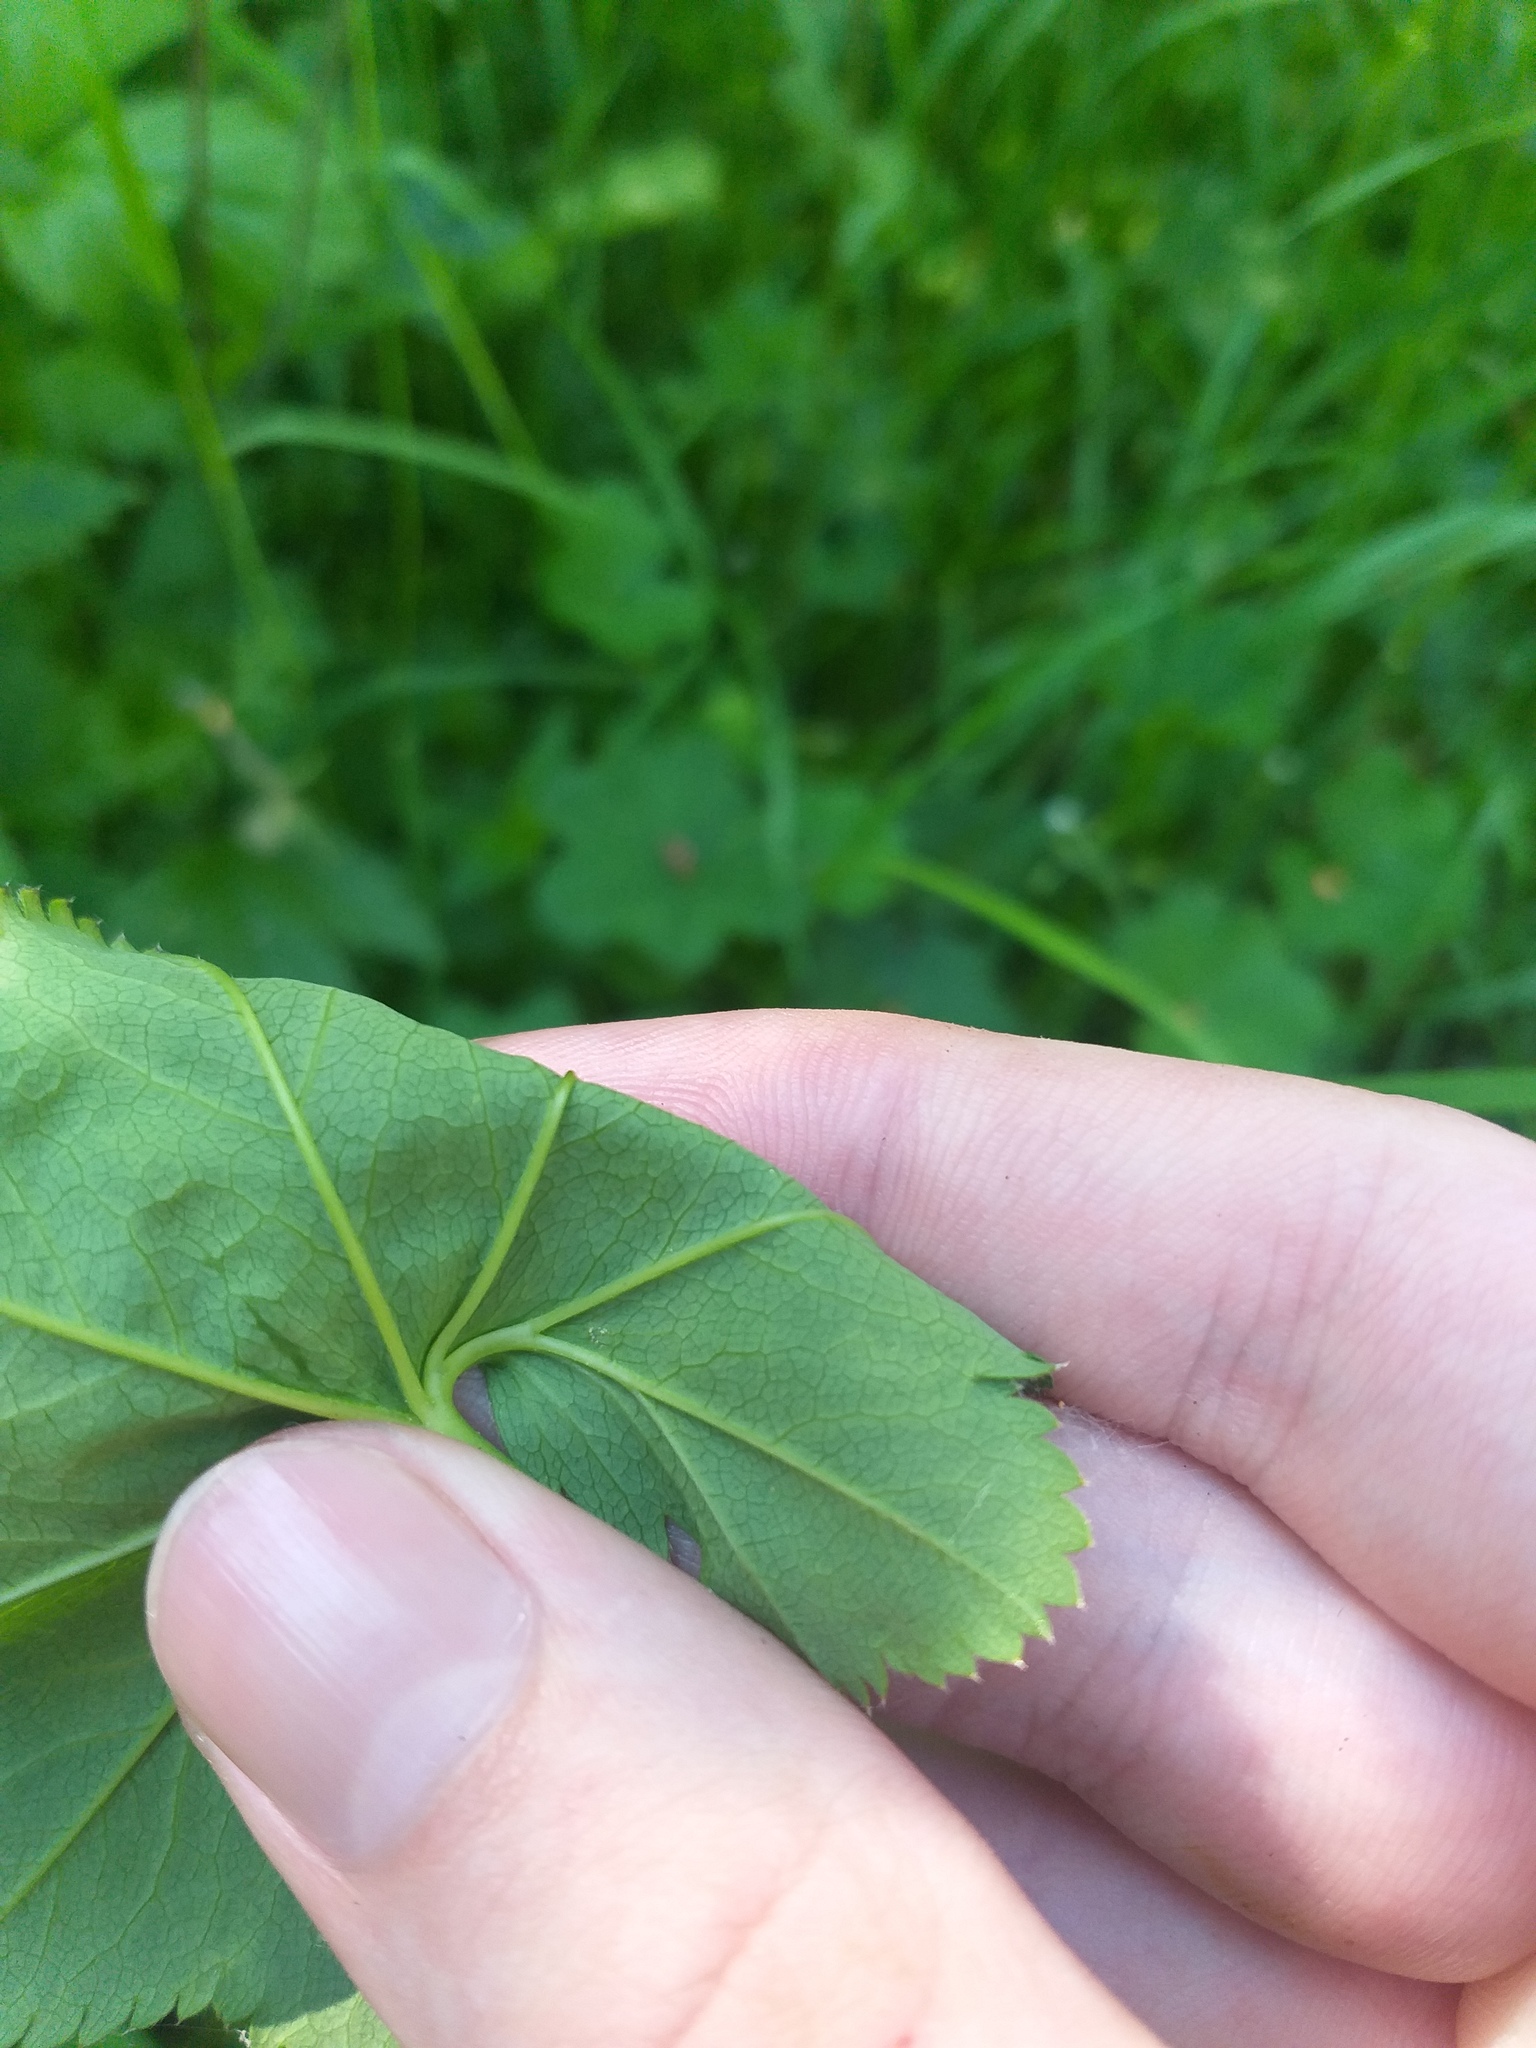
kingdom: Plantae
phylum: Tracheophyta
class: Magnoliopsida
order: Rosales
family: Rosaceae
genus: Alchemilla
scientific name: Alchemilla glabricaulis
